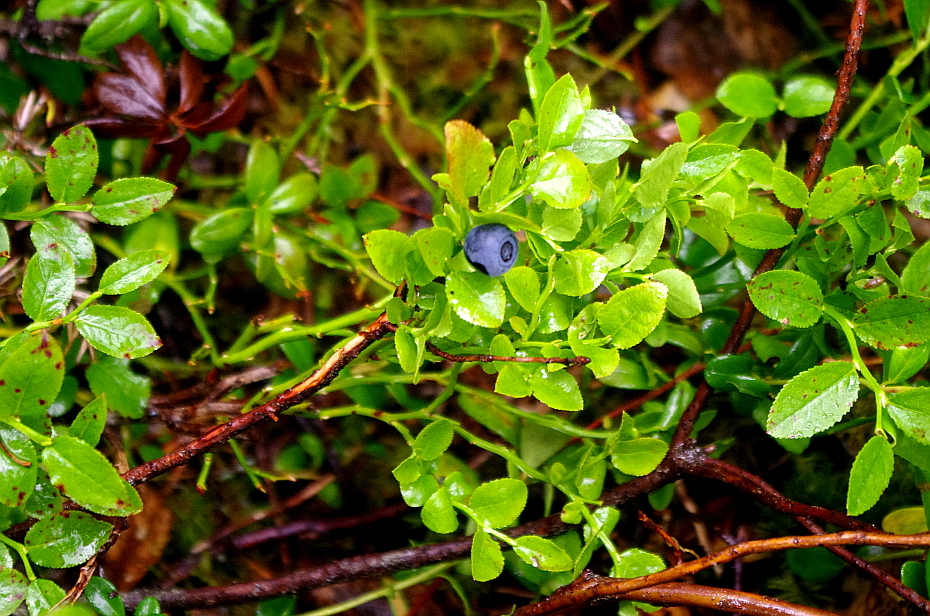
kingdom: Plantae
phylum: Tracheophyta
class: Magnoliopsida
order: Ericales
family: Ericaceae
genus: Vaccinium
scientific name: Vaccinium myrtillus
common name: Bilberry
